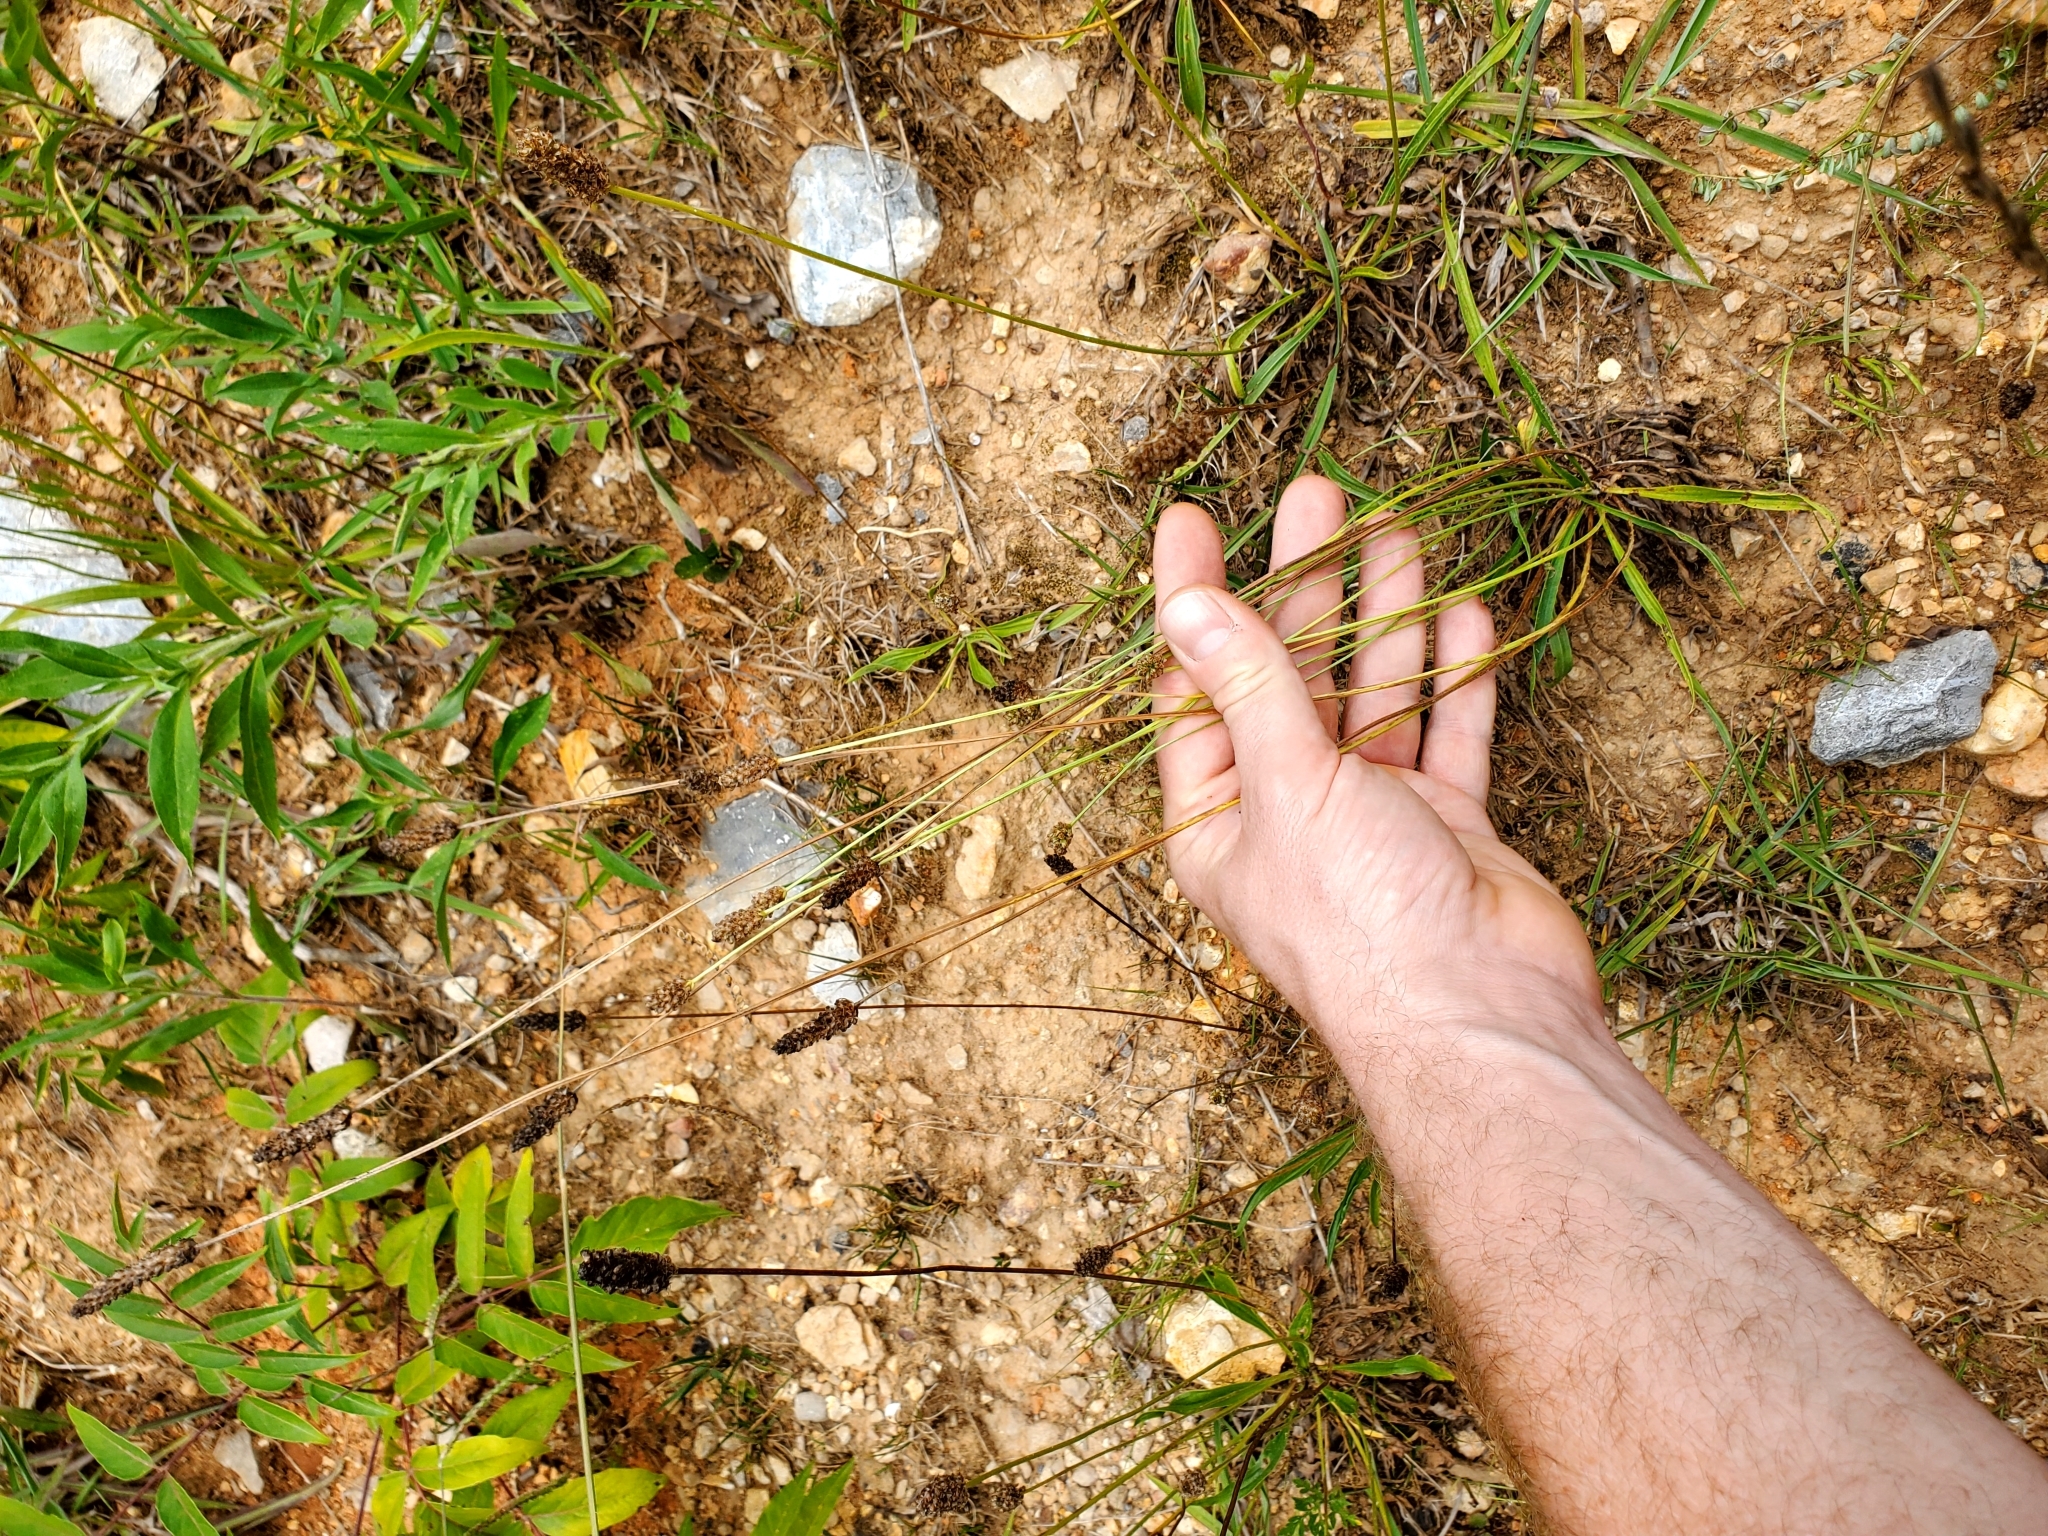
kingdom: Plantae
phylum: Tracheophyta
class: Magnoliopsida
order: Lamiales
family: Plantaginaceae
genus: Plantago
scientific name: Plantago lanceolata
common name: Ribwort plantain
